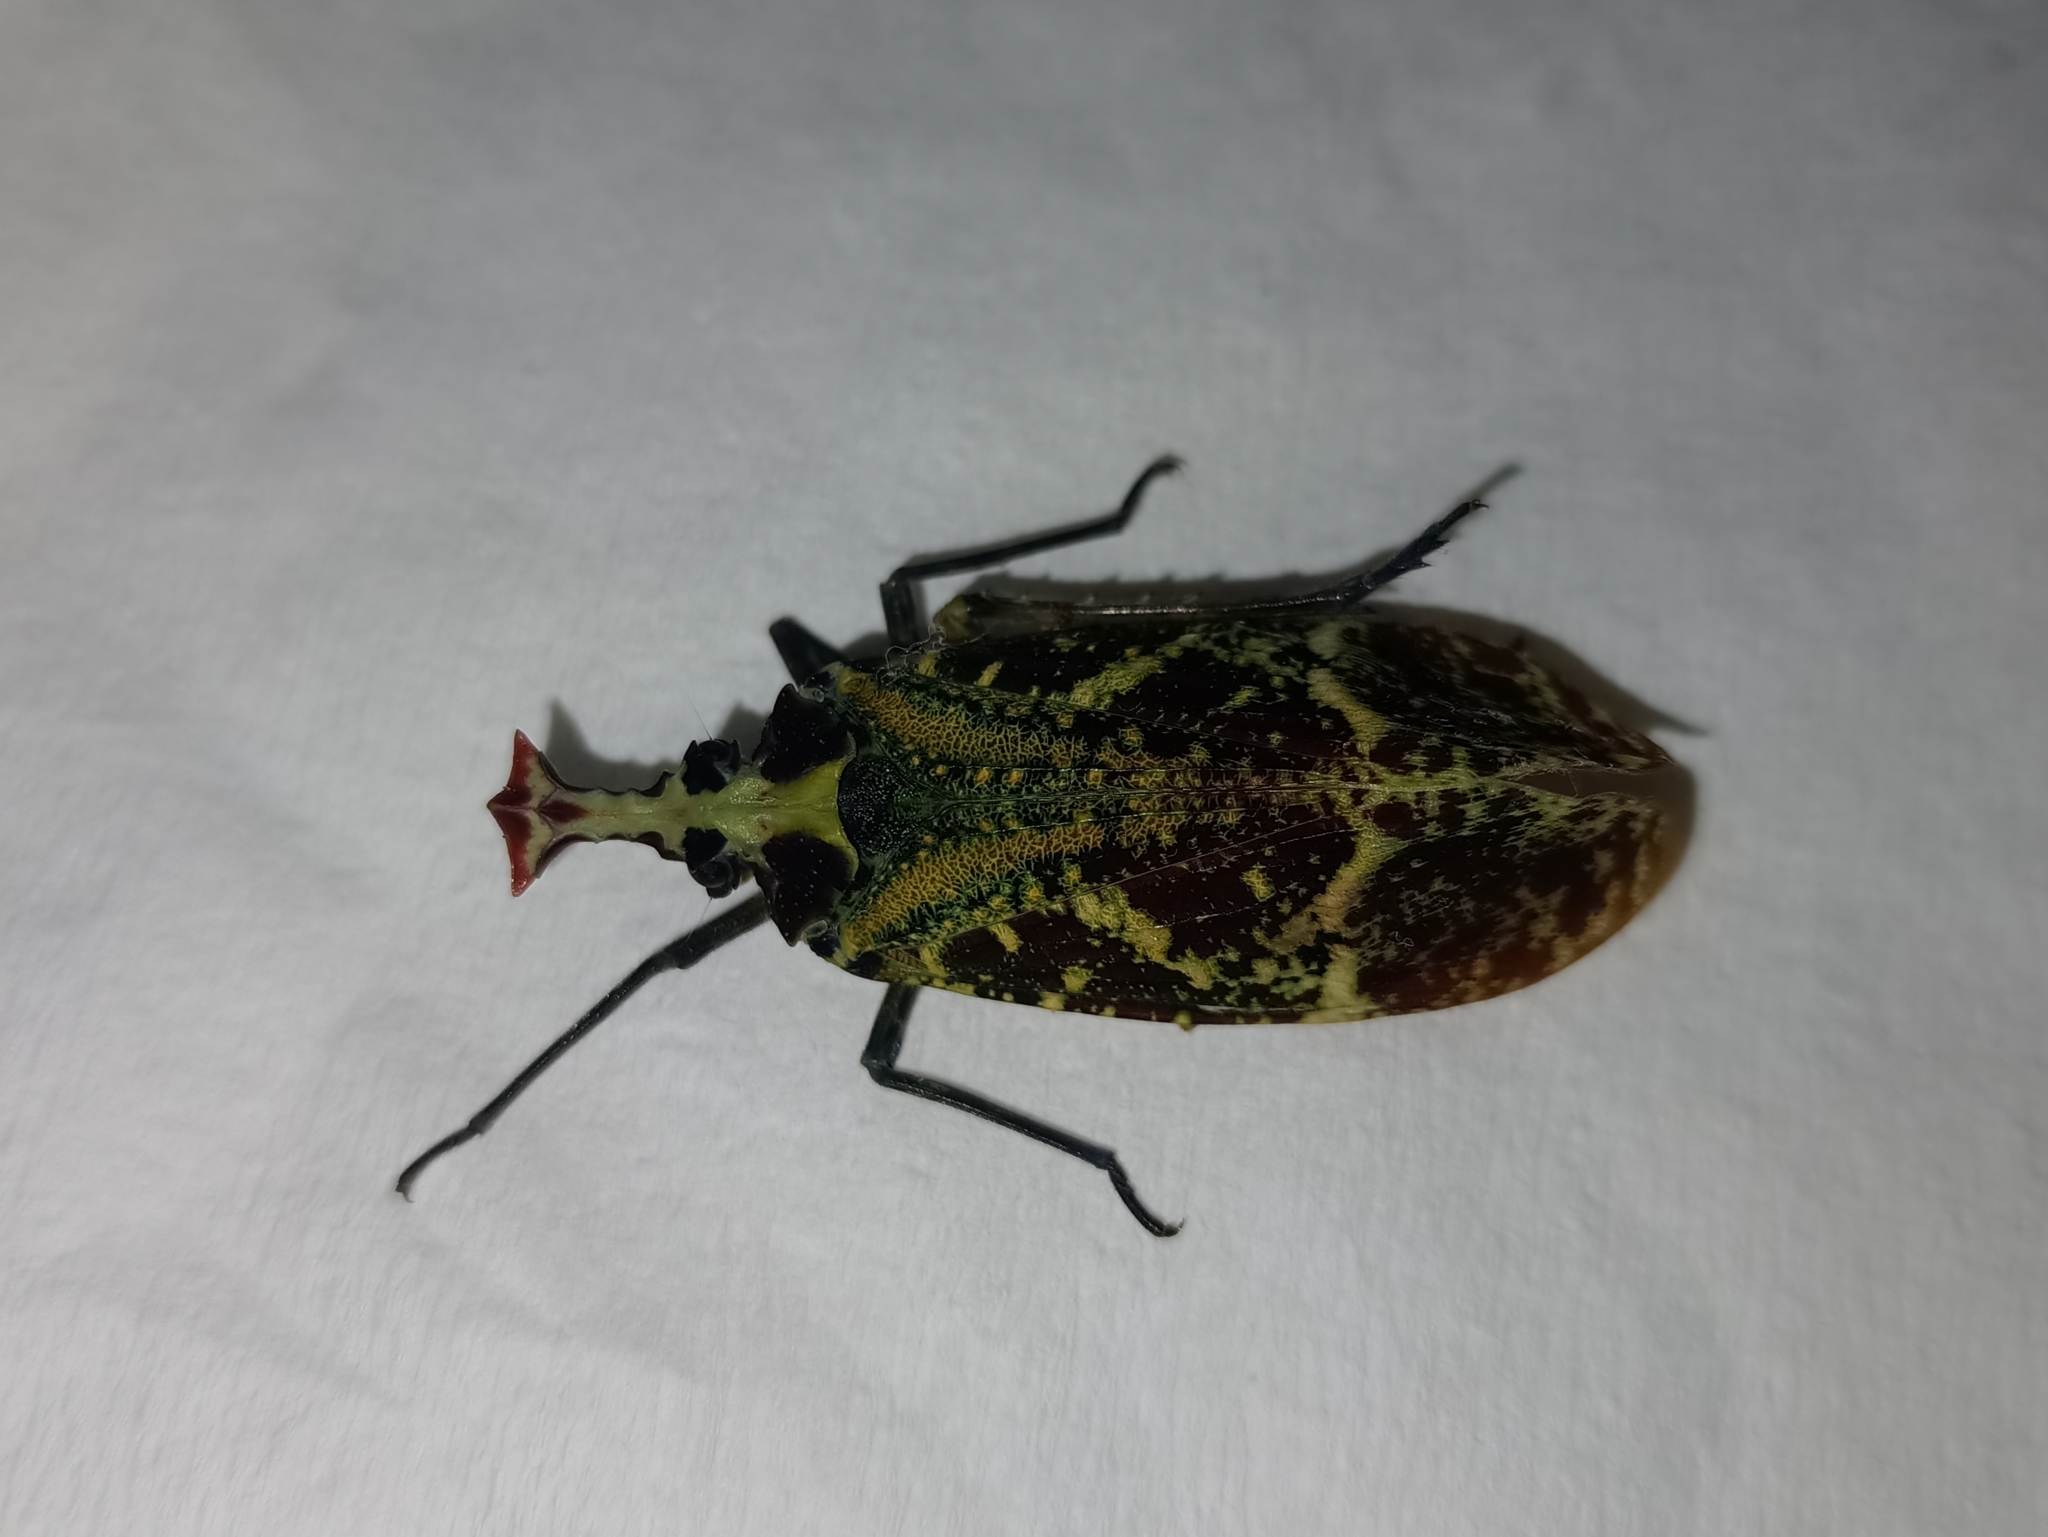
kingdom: Animalia
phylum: Arthropoda
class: Insecta
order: Hemiptera
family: Fulgoridae
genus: Phrictus
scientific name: Phrictus punctatus
